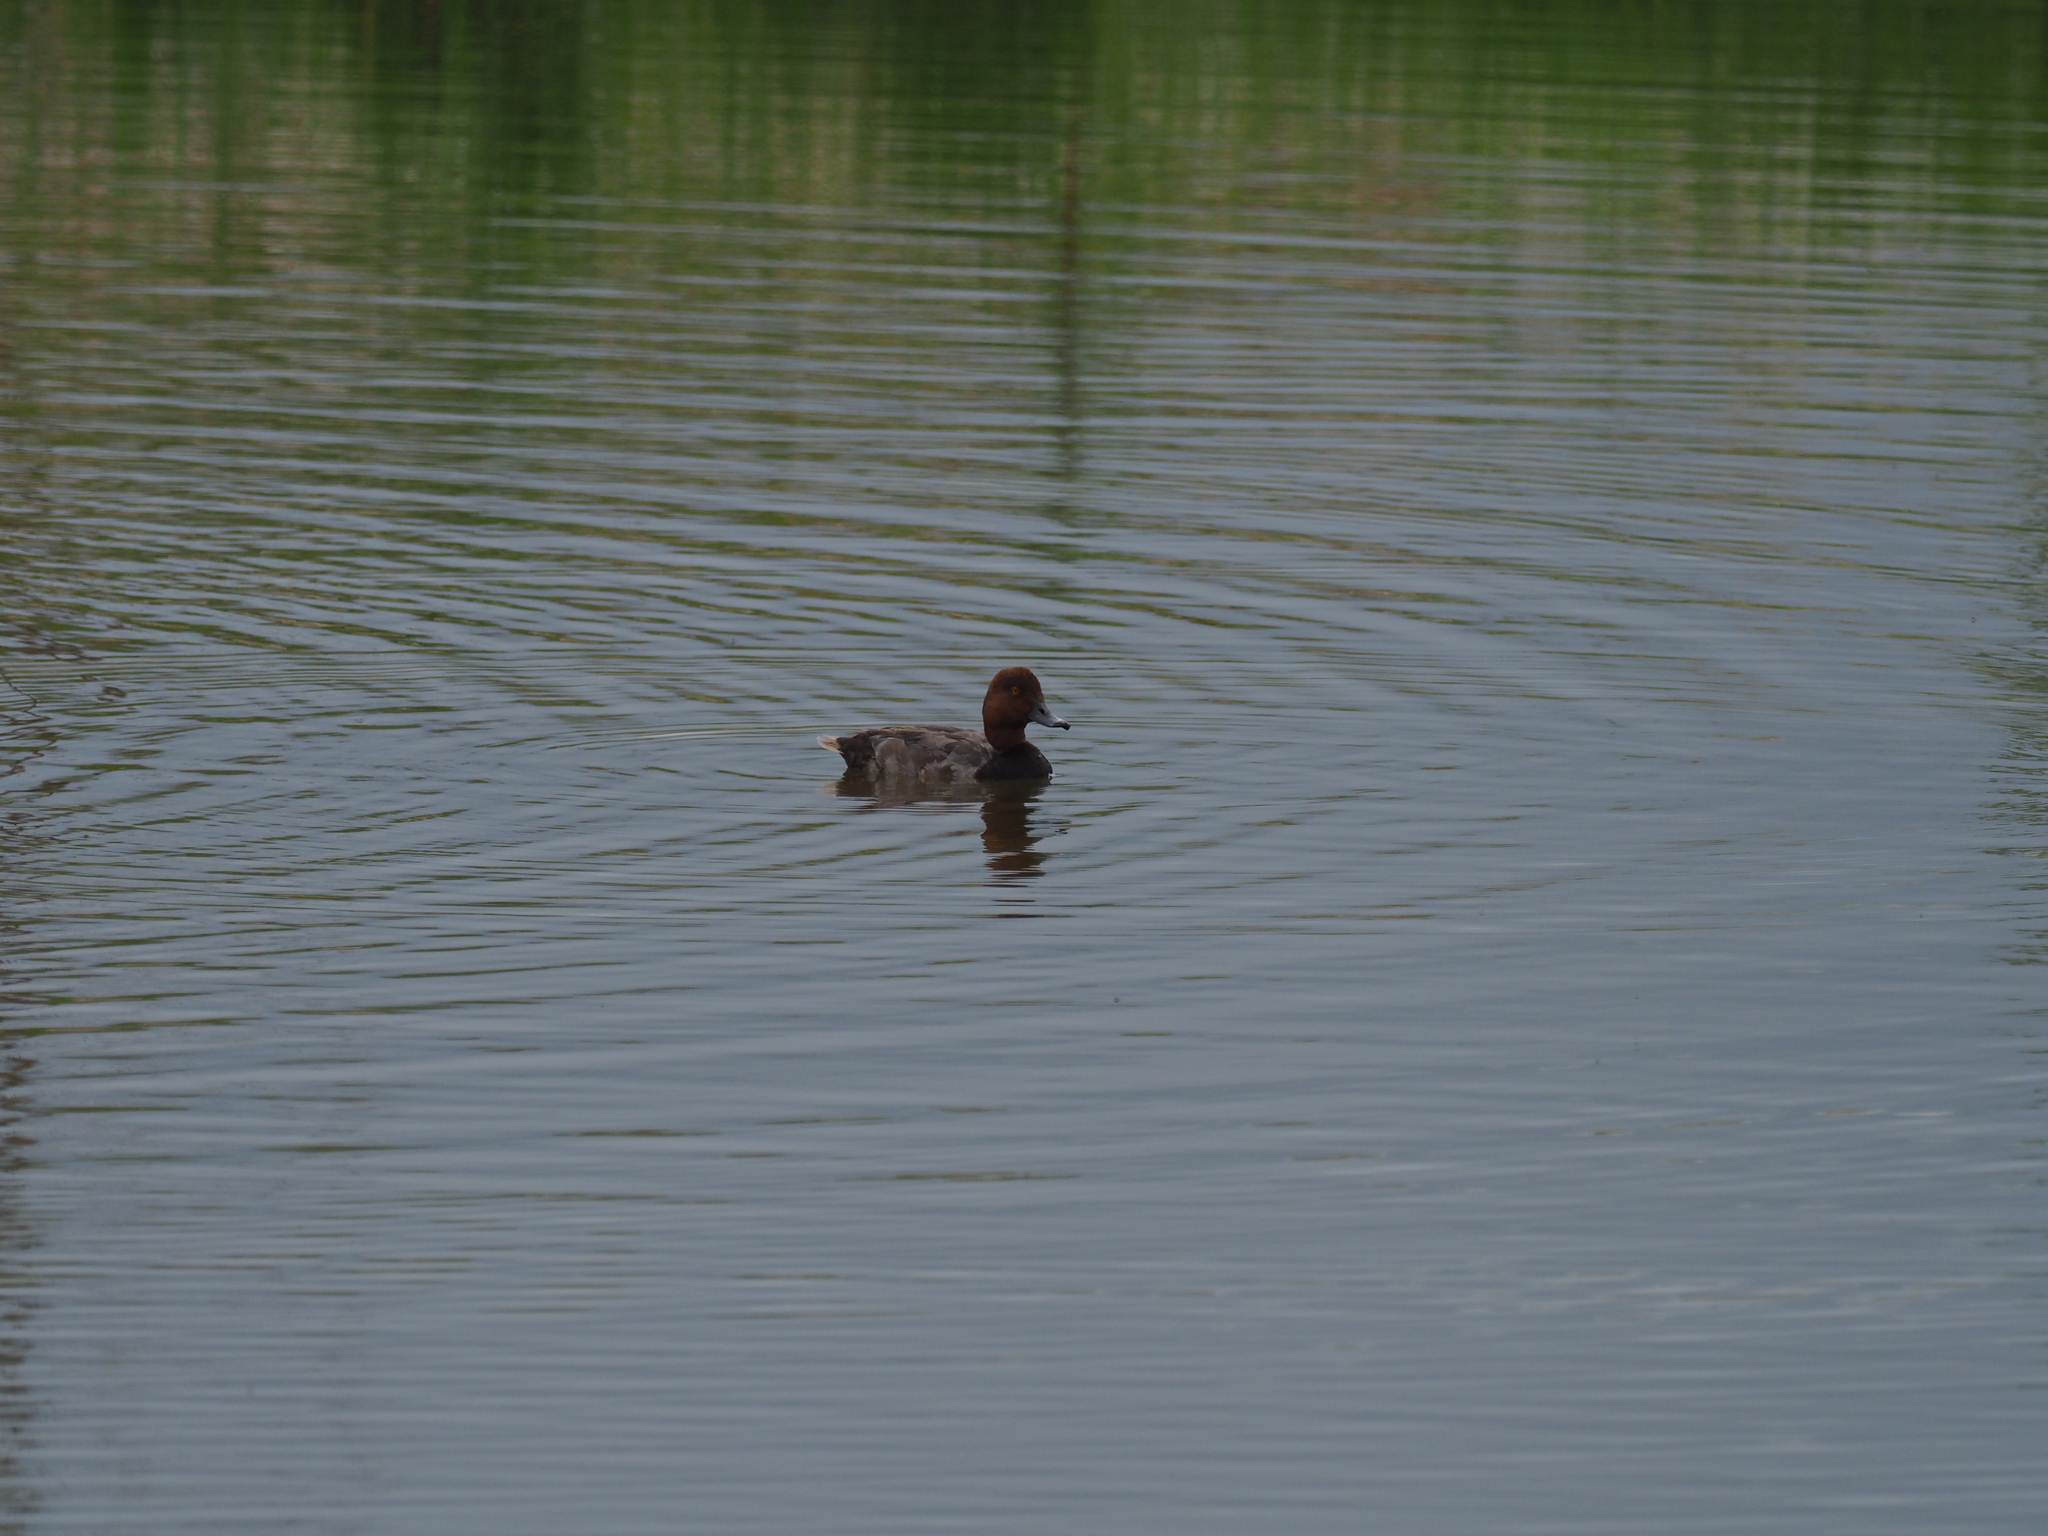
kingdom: Animalia
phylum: Chordata
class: Aves
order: Anseriformes
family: Anatidae
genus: Aythya
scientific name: Aythya americana
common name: Redhead
